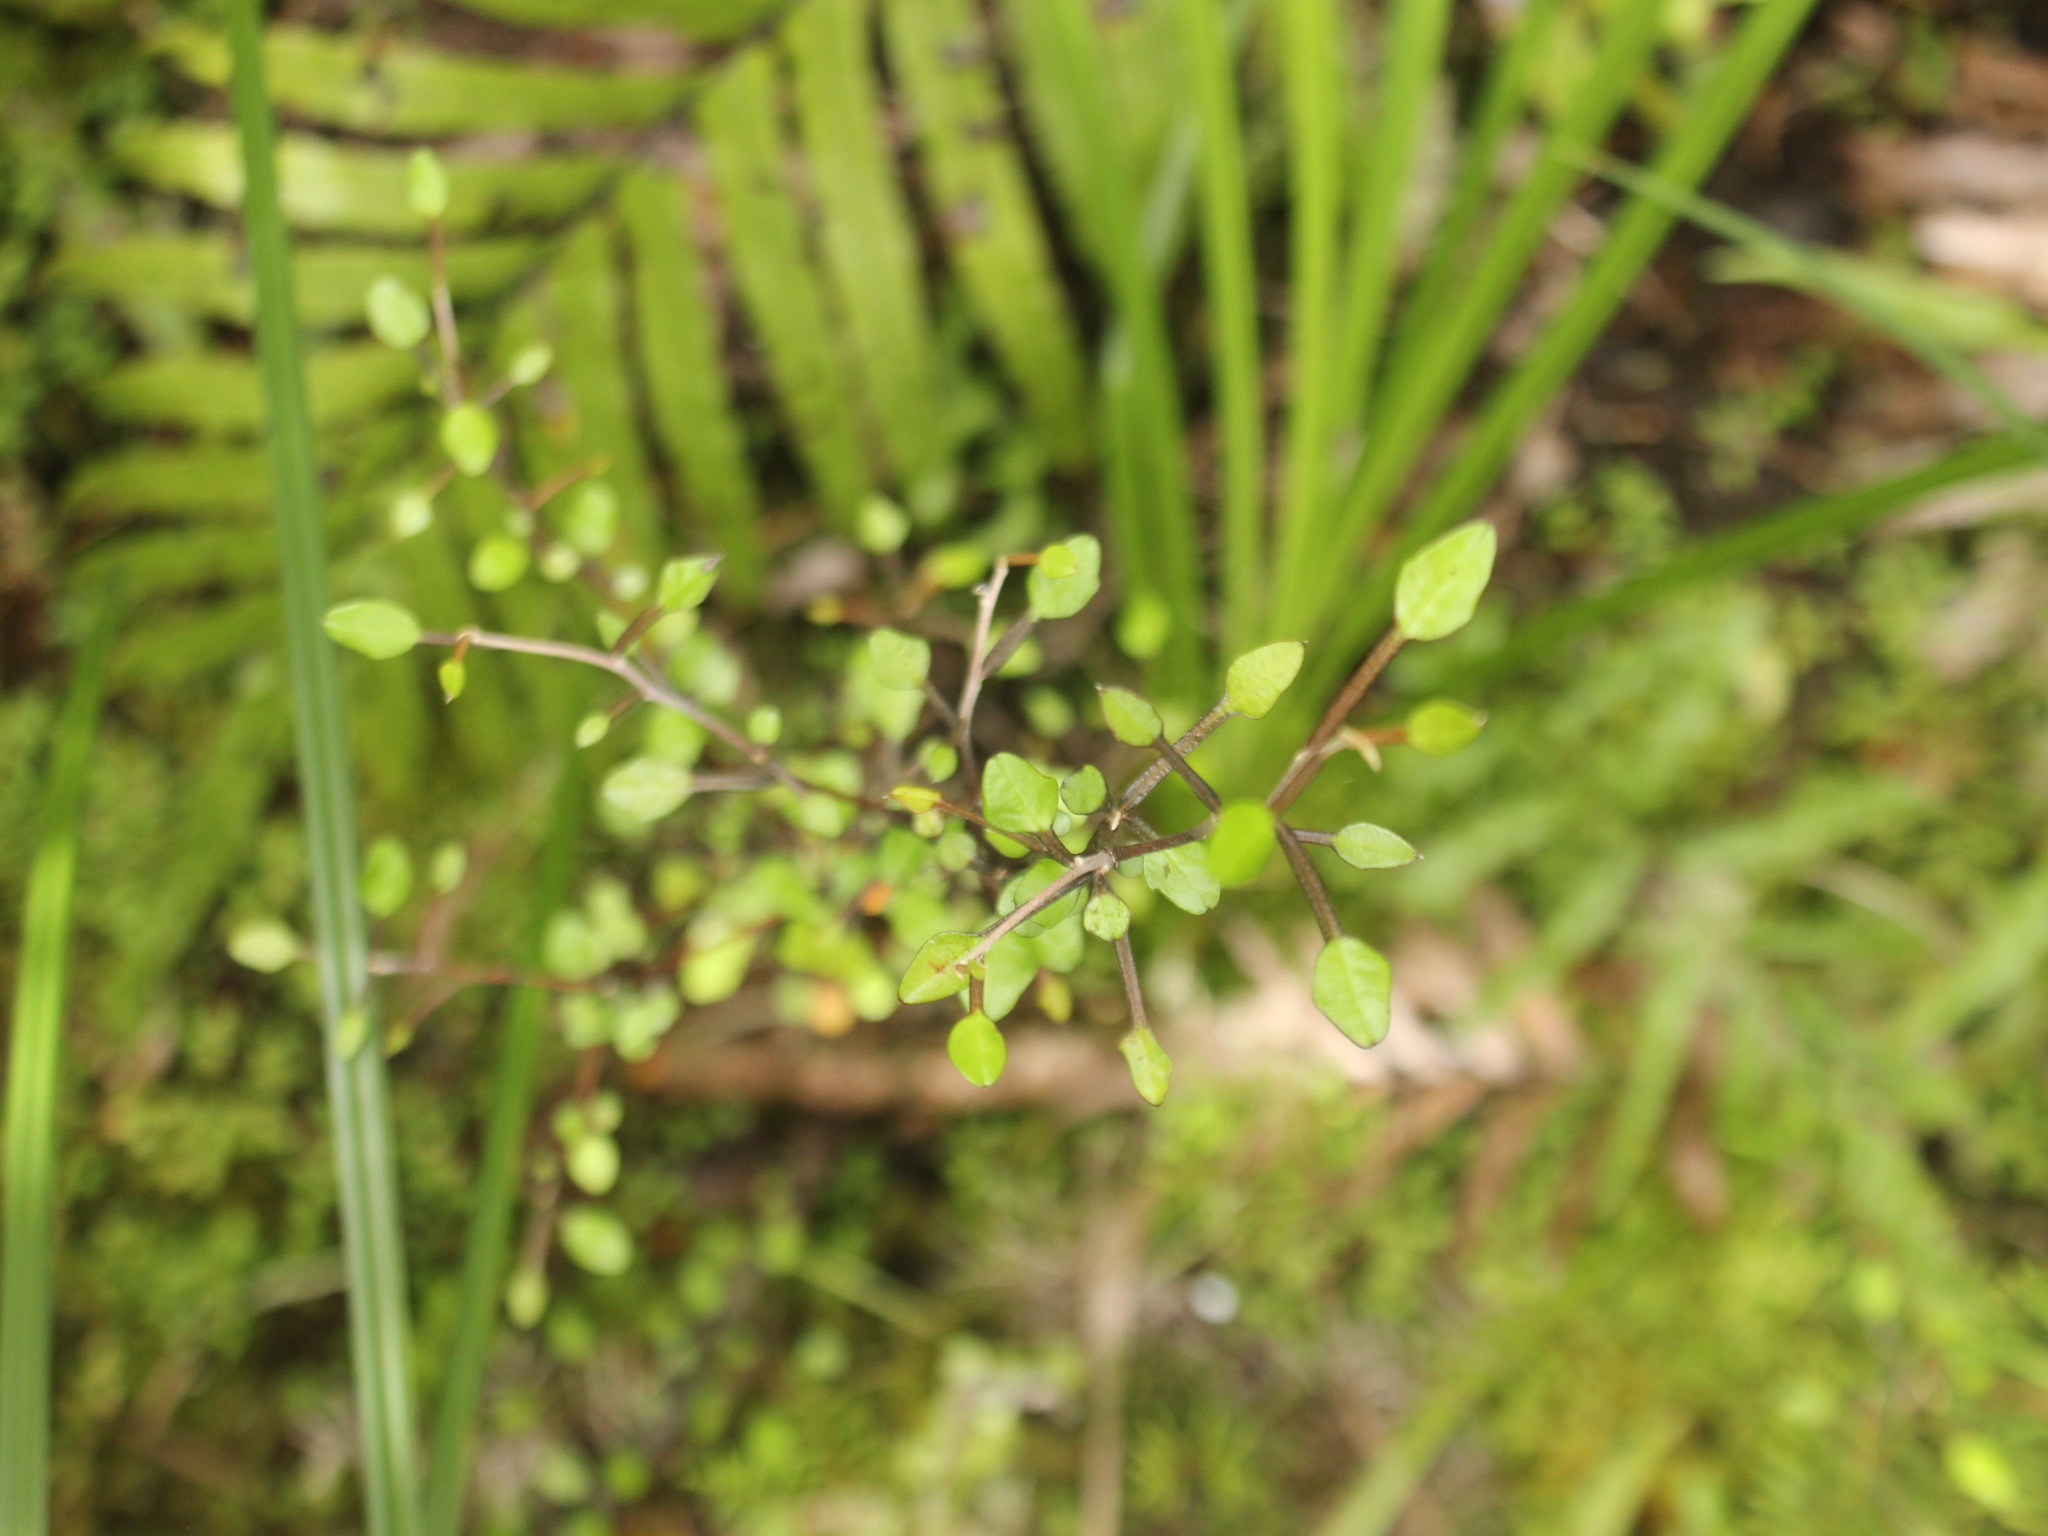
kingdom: Plantae
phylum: Tracheophyta
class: Magnoliopsida
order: Apiales
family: Araliaceae
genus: Raukaua
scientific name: Raukaua anomalus
